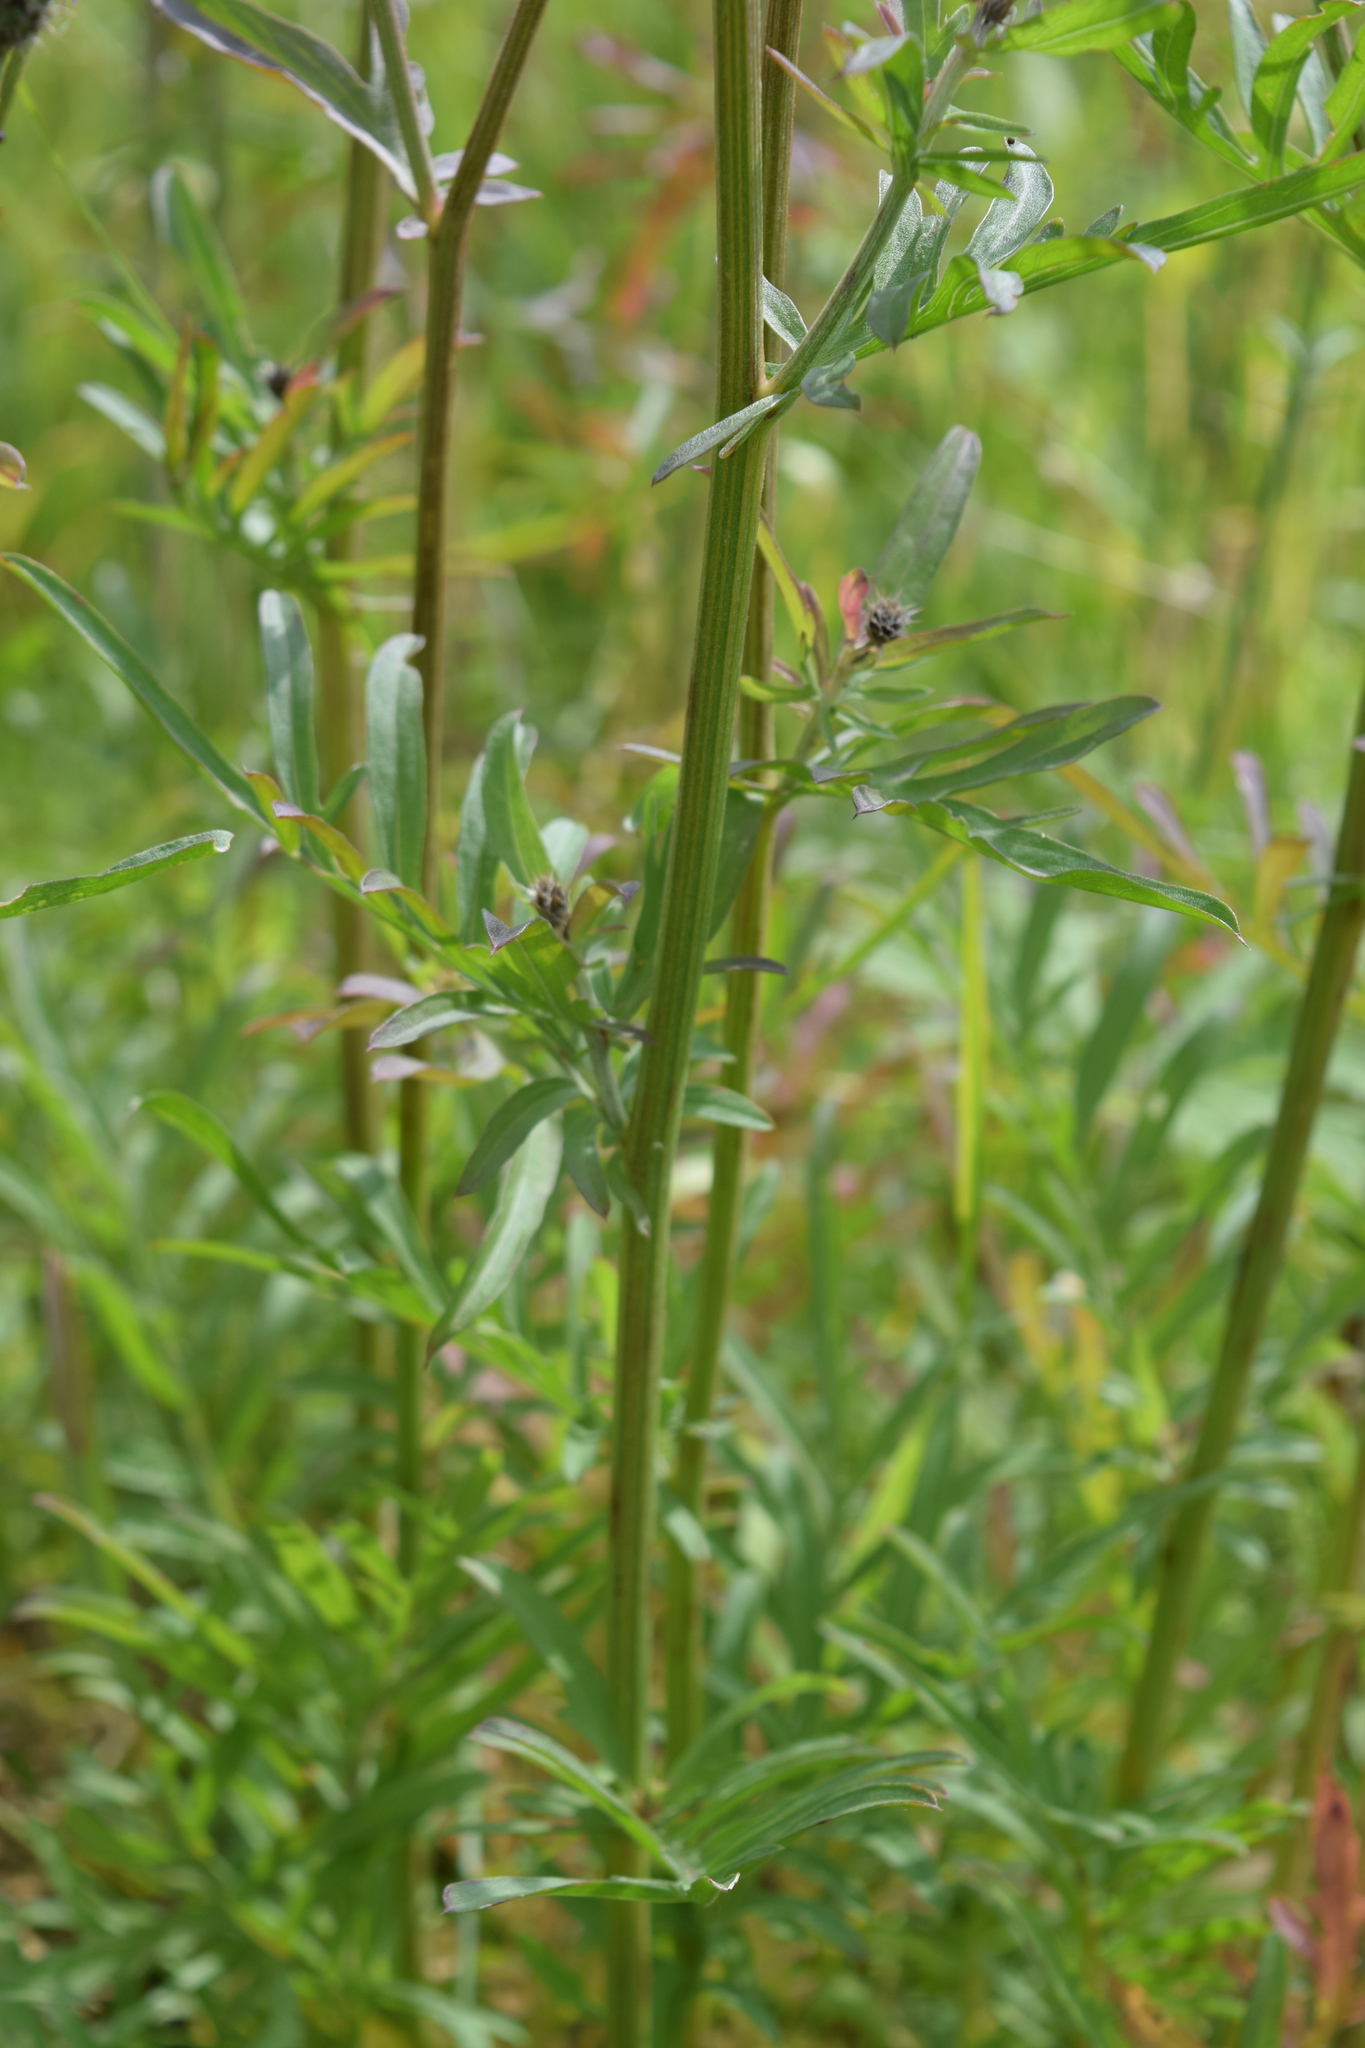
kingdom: Plantae
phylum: Tracheophyta
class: Magnoliopsida
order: Asterales
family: Asteraceae
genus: Centaurea
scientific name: Centaurea scabiosa
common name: Greater knapweed
